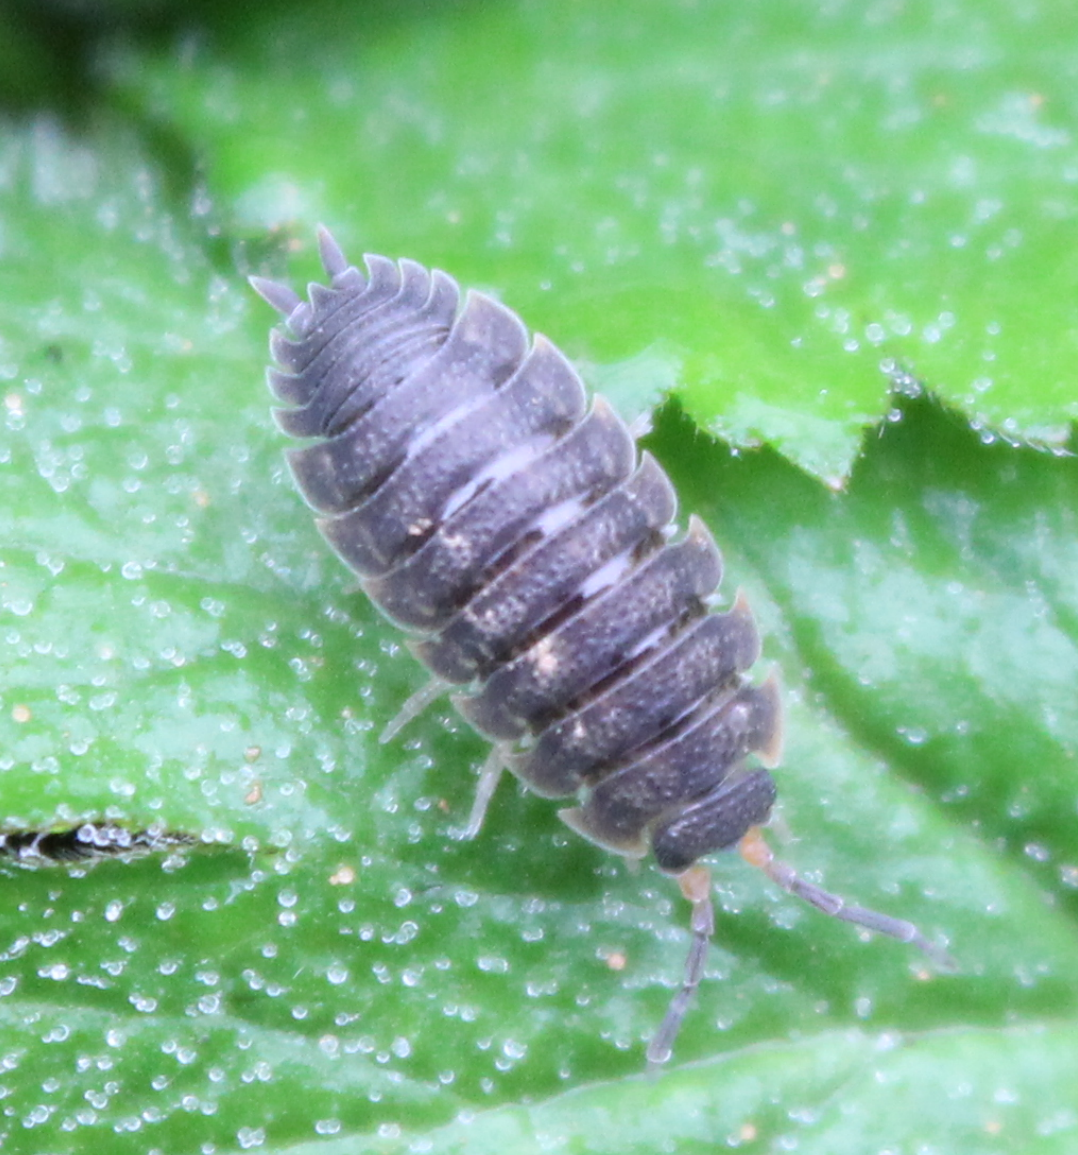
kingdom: Animalia
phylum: Arthropoda
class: Malacostraca
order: Isopoda
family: Porcellionidae
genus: Porcellio
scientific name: Porcellio scaber
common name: Common rough woodlouse
